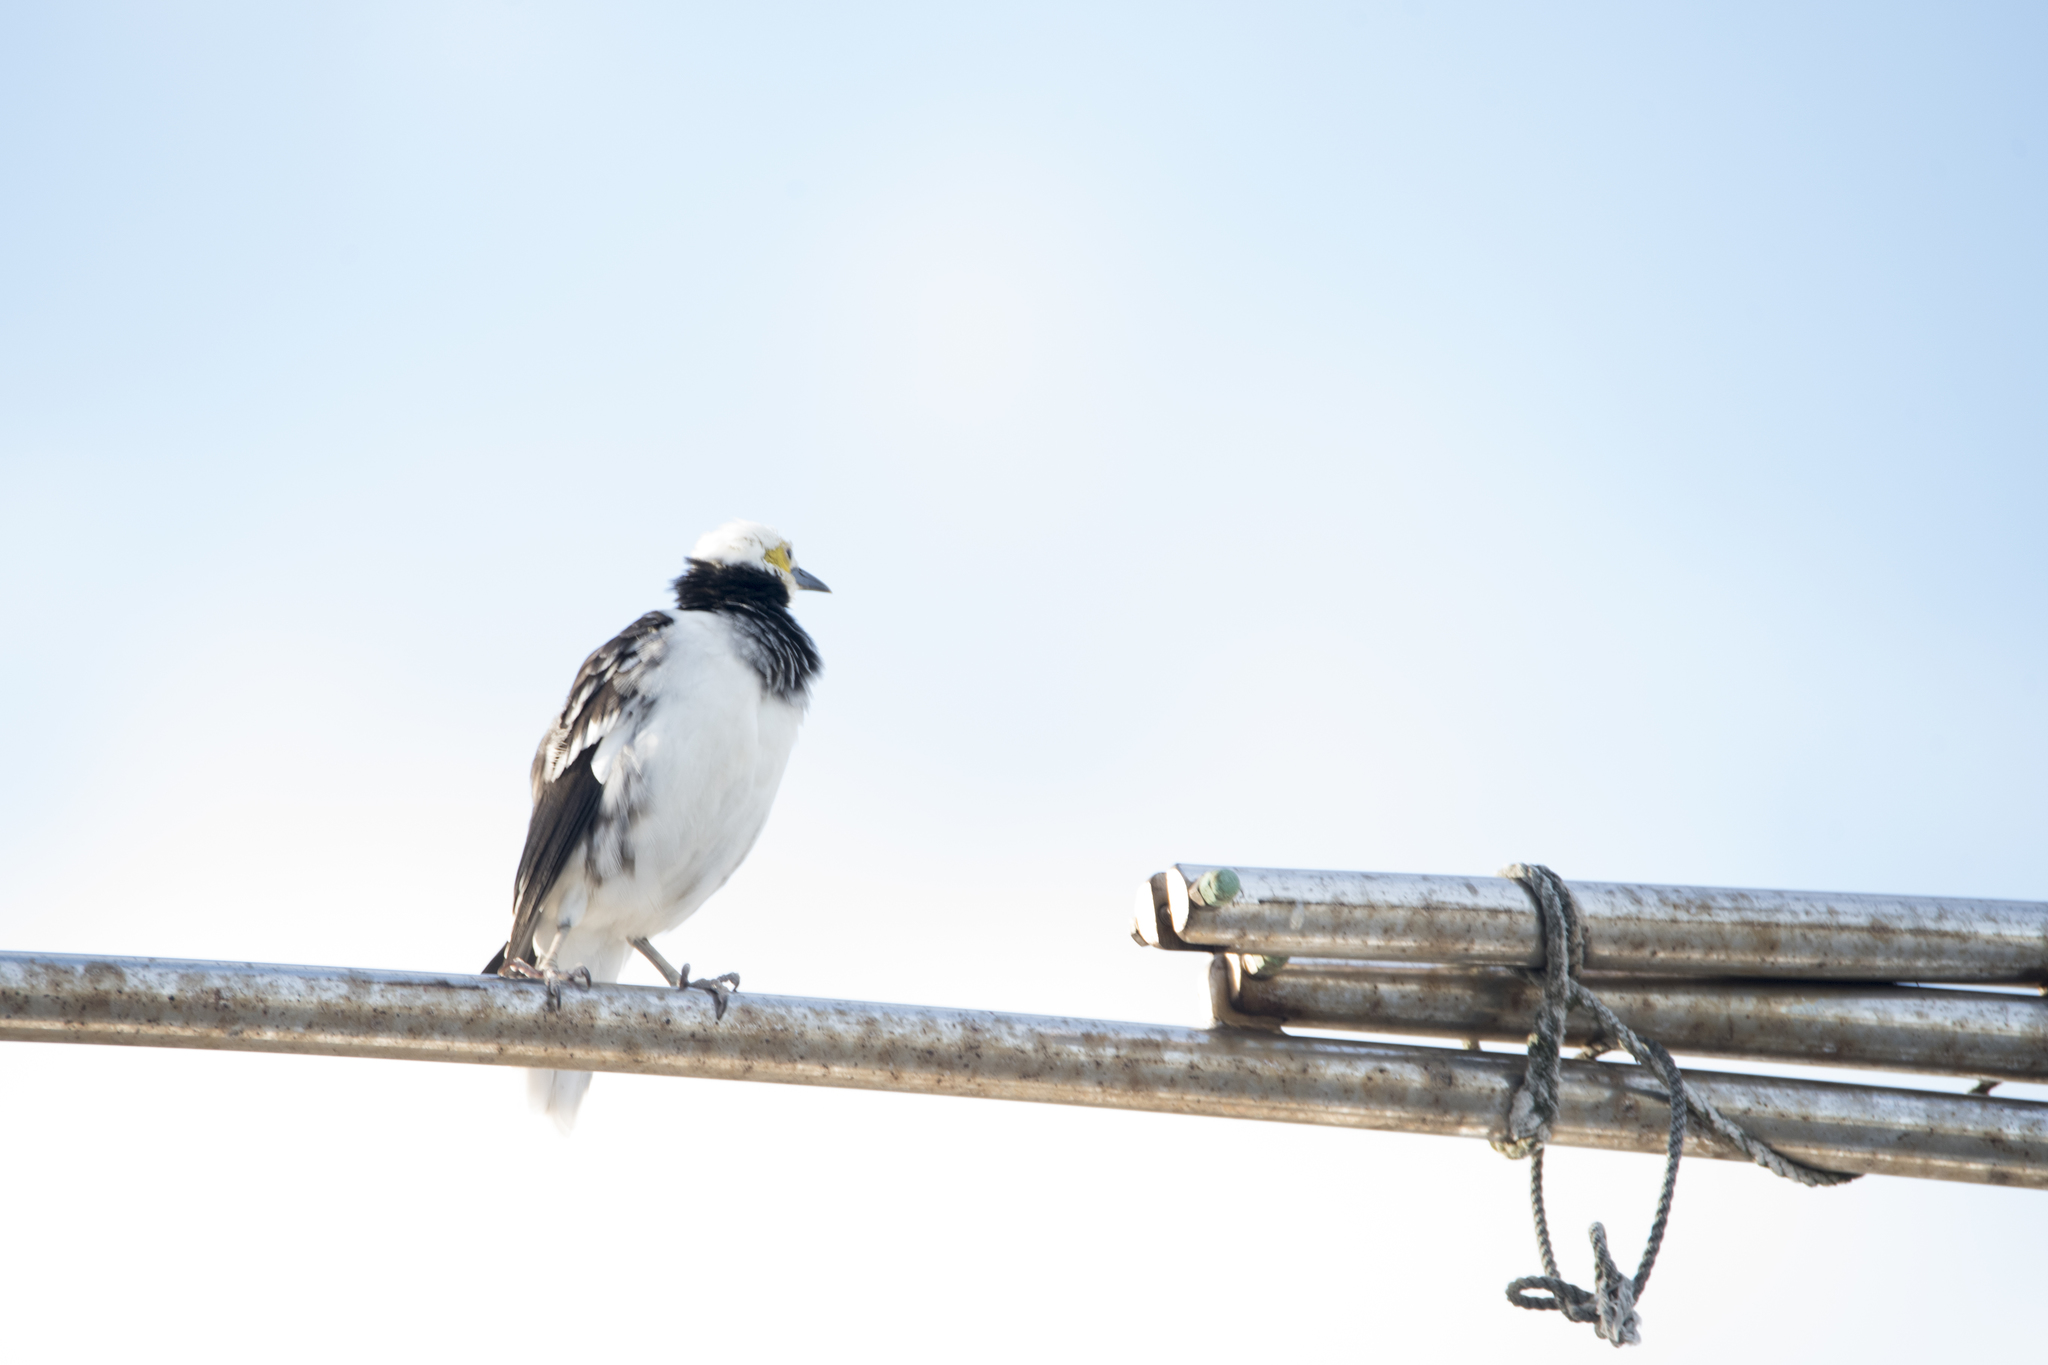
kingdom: Animalia
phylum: Chordata
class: Aves
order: Passeriformes
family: Sturnidae
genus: Gracupica
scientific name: Gracupica nigricollis
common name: Black-collared starling
